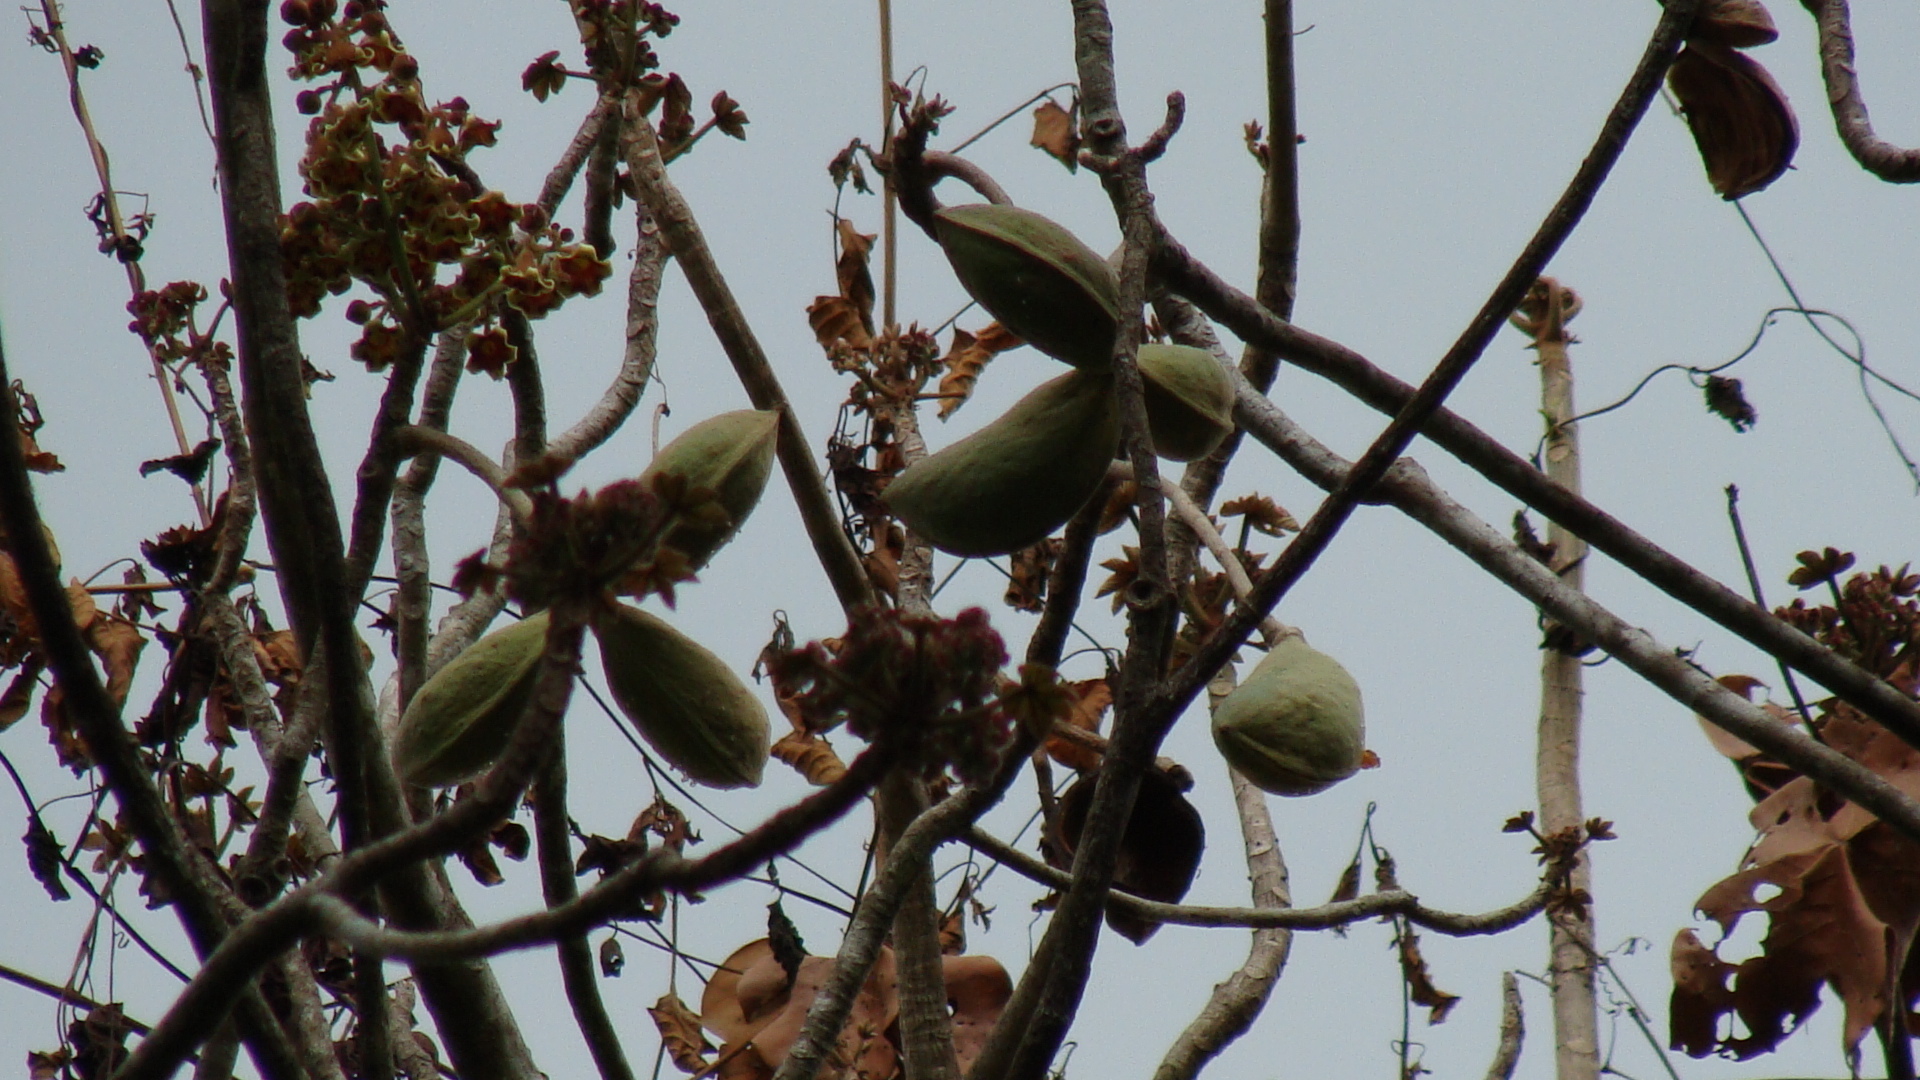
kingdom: Plantae
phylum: Tracheophyta
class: Magnoliopsida
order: Malvales
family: Malvaceae
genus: Sterculia
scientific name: Sterculia apetala
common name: Panama tree
